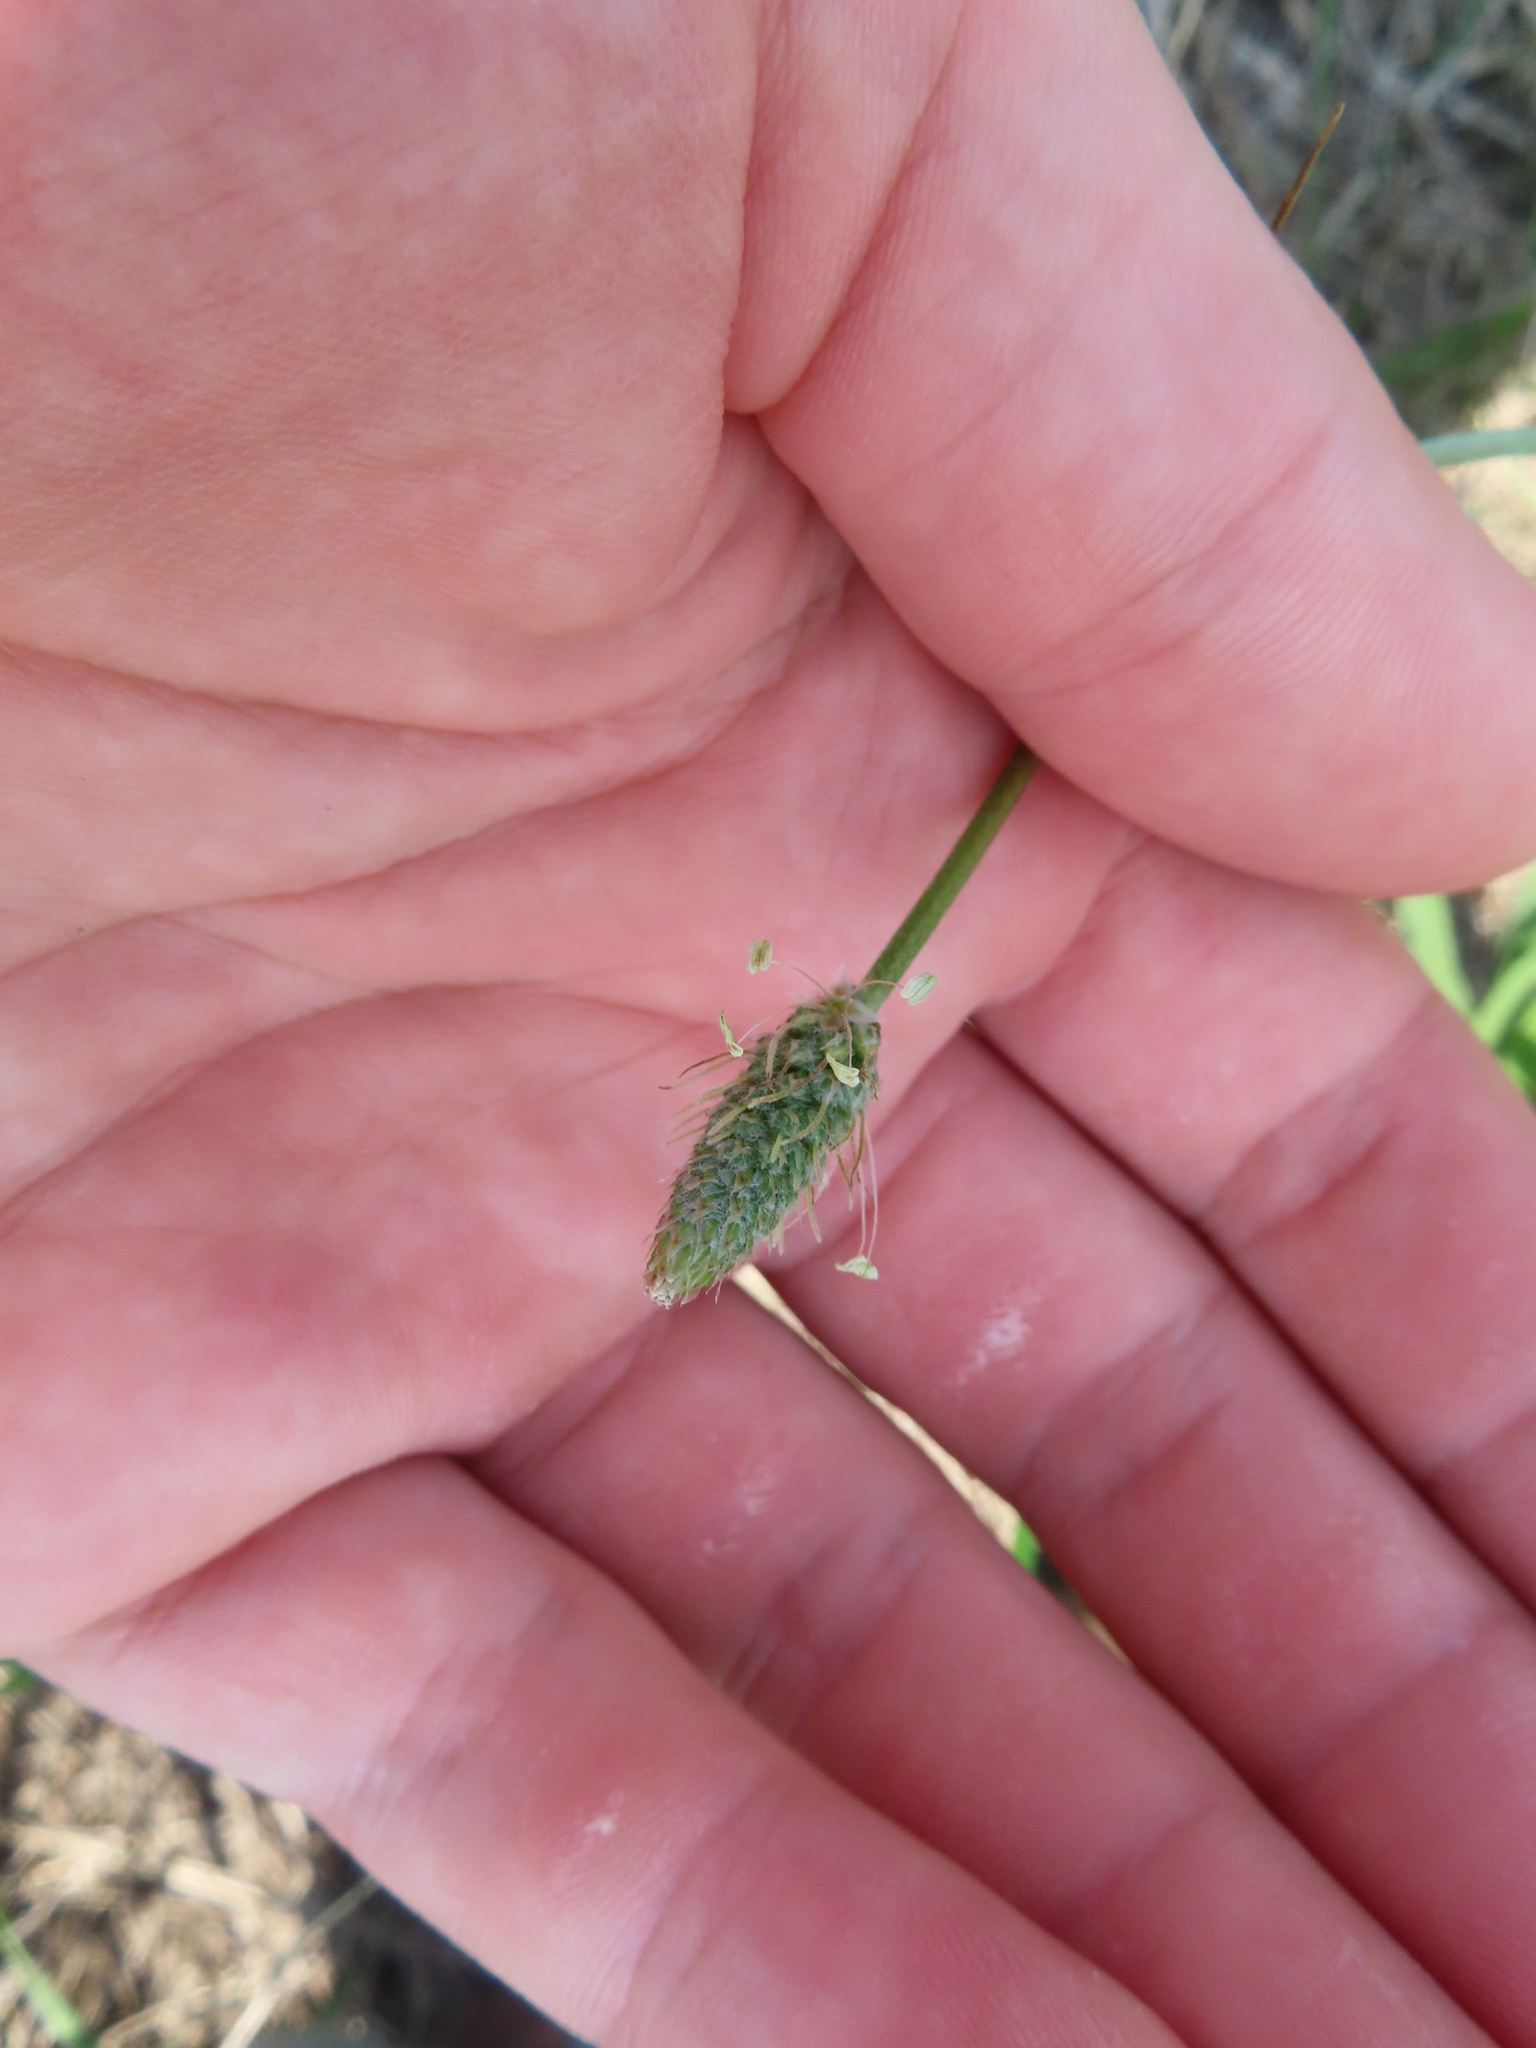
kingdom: Plantae
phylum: Tracheophyta
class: Magnoliopsida
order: Lamiales
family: Plantaginaceae
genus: Plantago
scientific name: Plantago lanceolata
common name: Ribwort plantain
